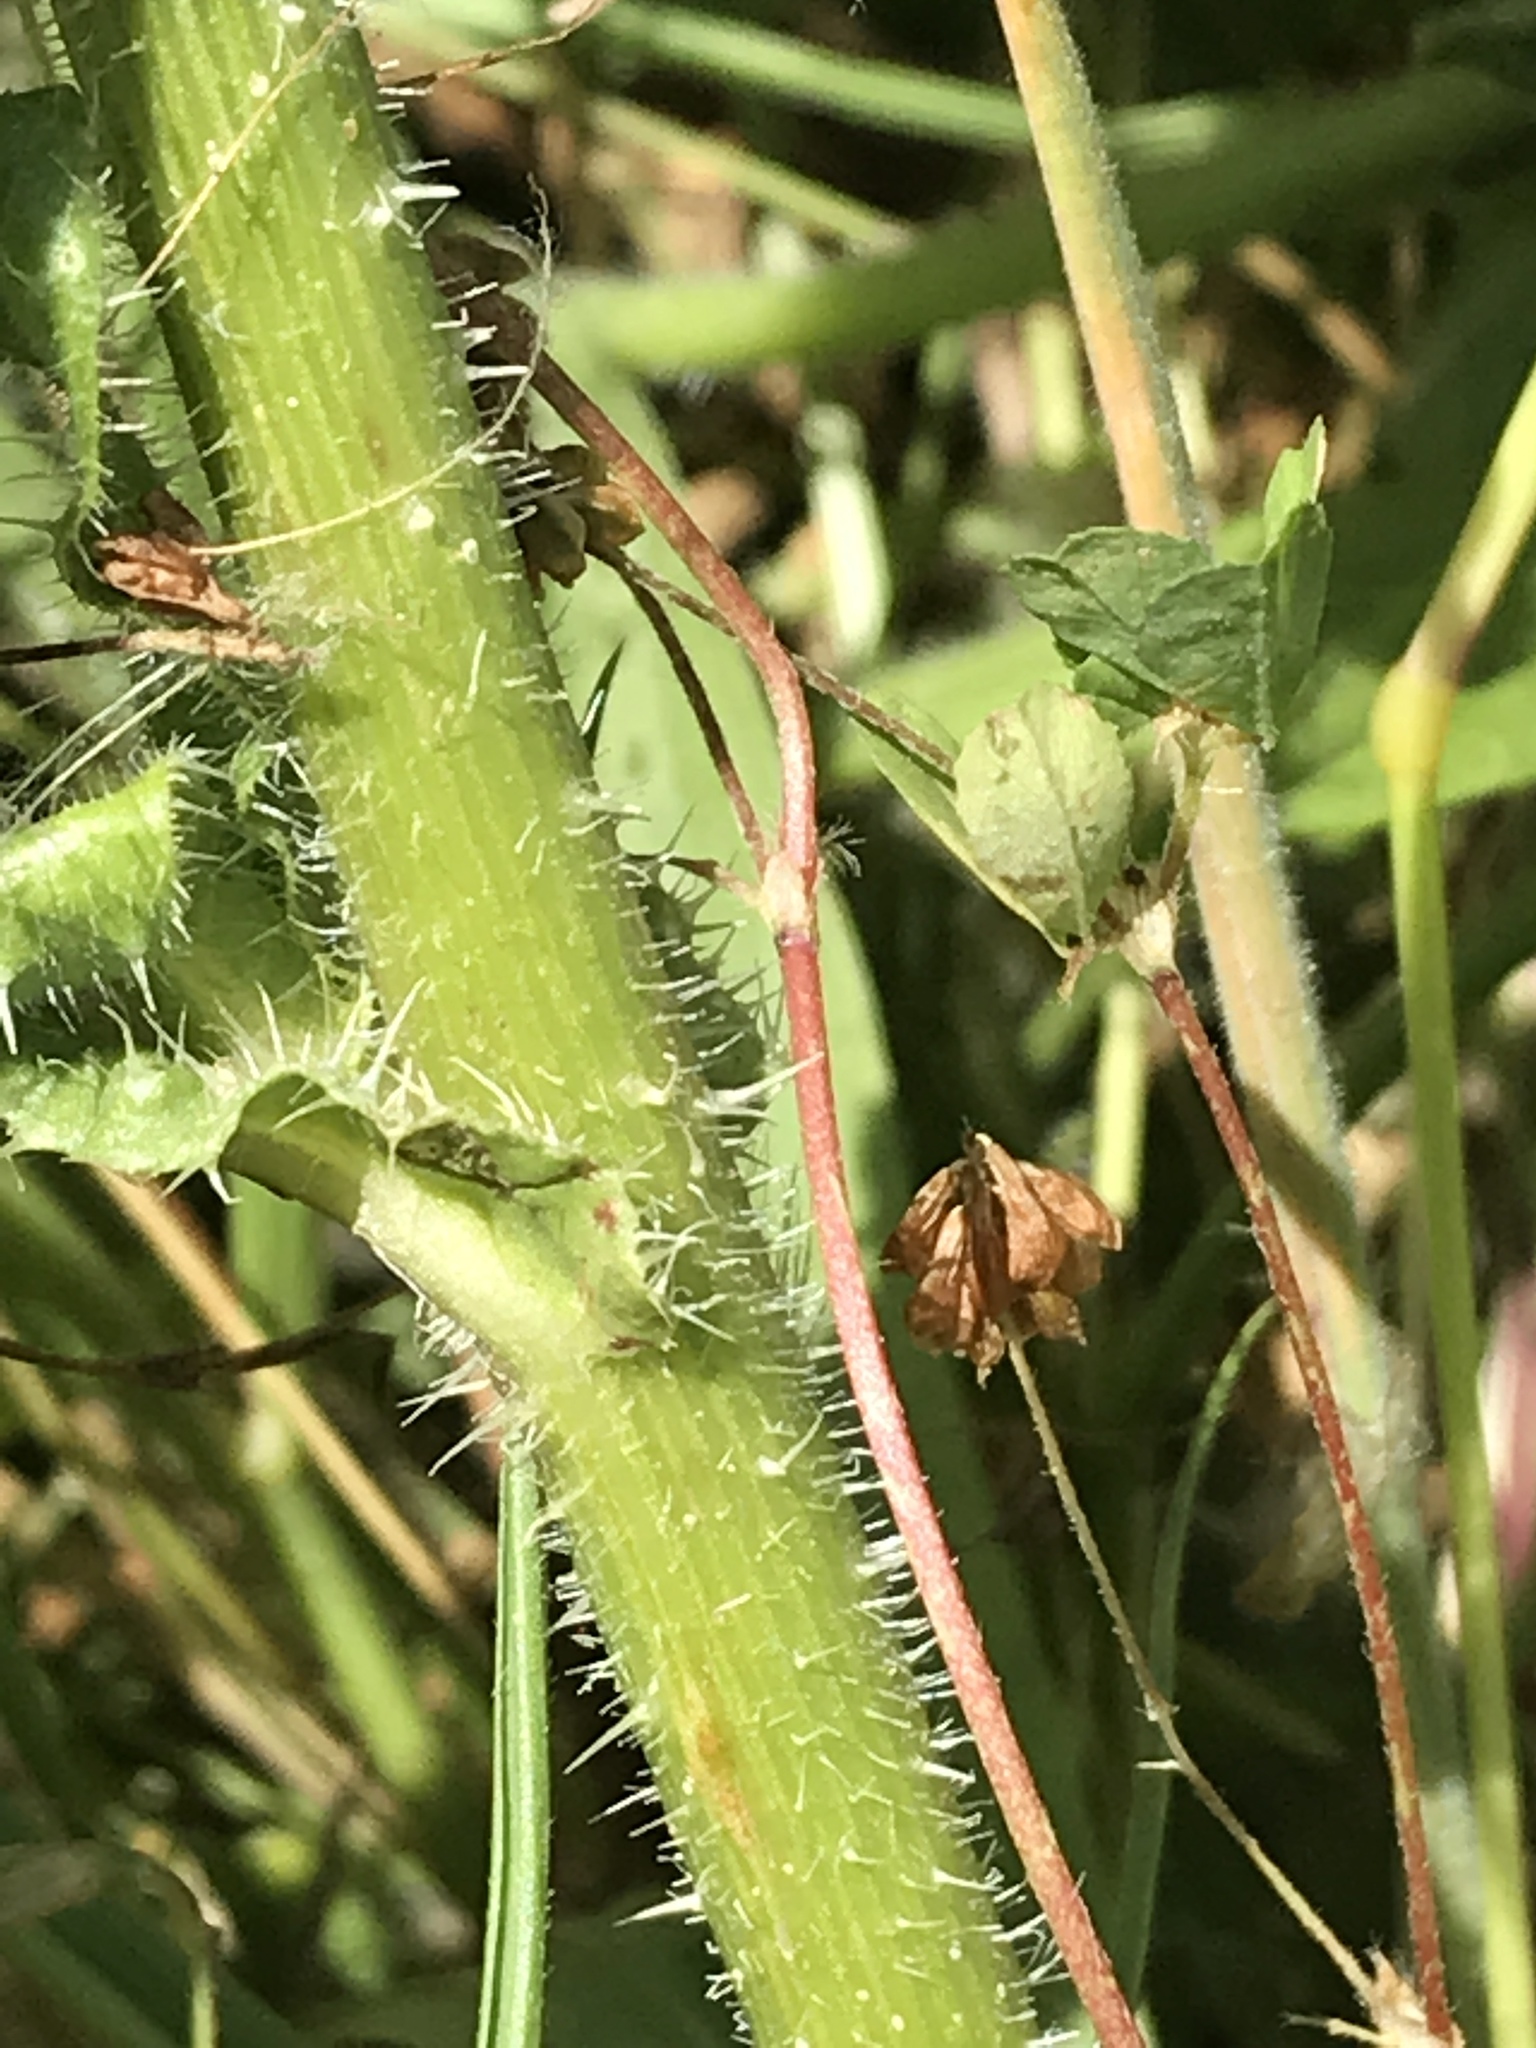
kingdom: Plantae
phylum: Tracheophyta
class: Magnoliopsida
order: Asterales
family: Asteraceae
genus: Helminthotheca
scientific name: Helminthotheca echioides
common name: Ox-tongue
